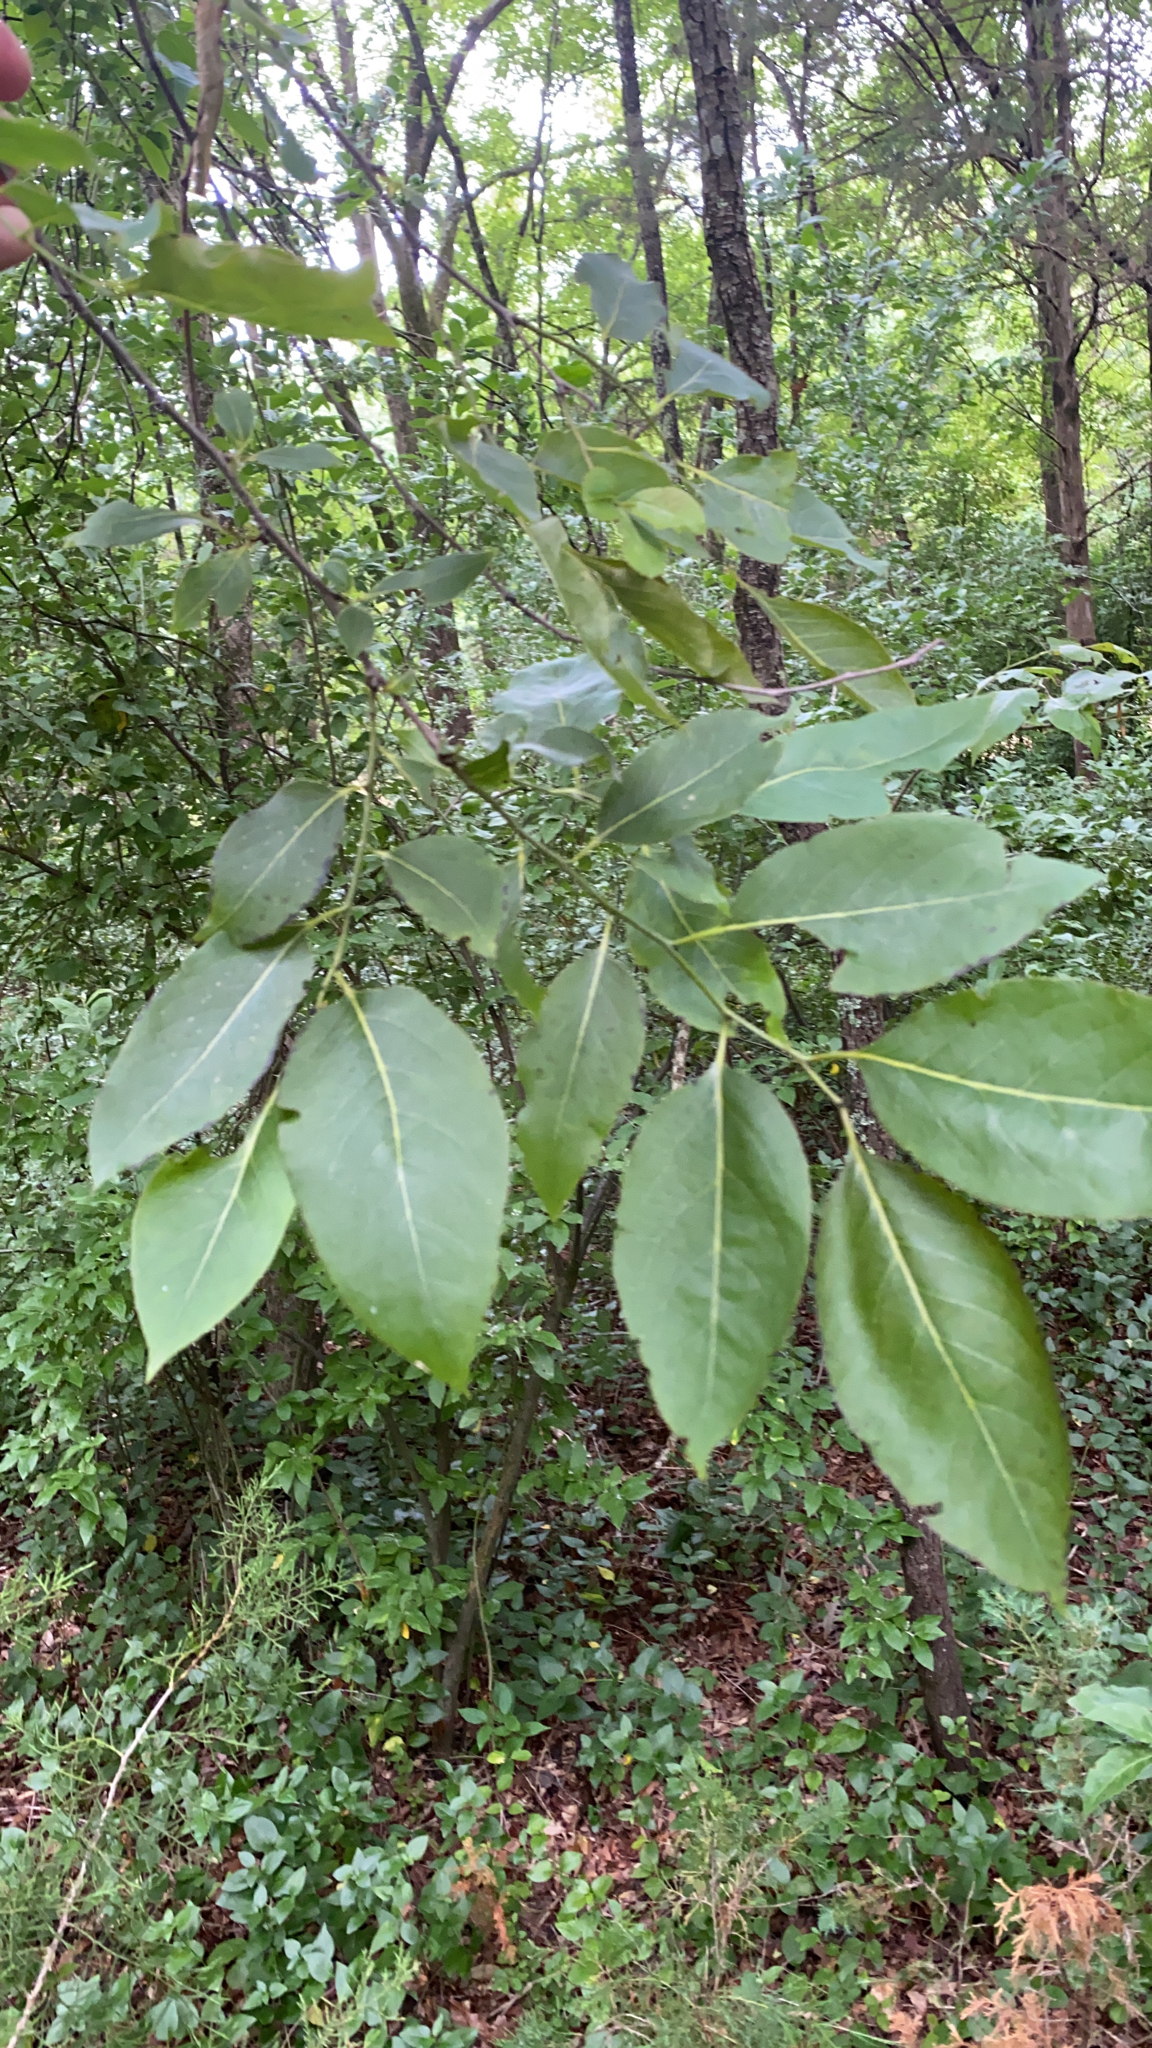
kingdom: Plantae
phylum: Tracheophyta
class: Magnoliopsida
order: Ericales
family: Ebenaceae
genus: Diospyros
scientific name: Diospyros virginiana
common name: Persimmon
